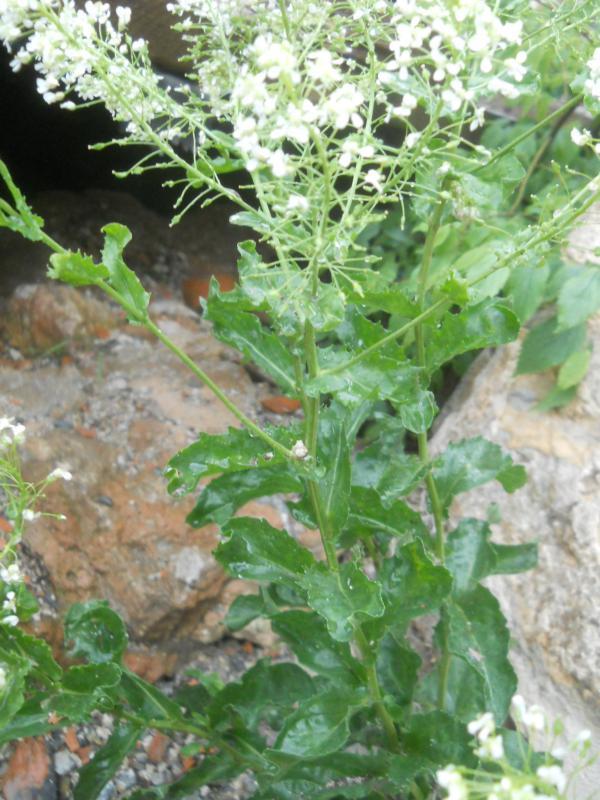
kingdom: Plantae
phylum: Tracheophyta
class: Magnoliopsida
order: Brassicales
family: Brassicaceae
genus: Lepidium
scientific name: Lepidium draba
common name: Hoary cress
